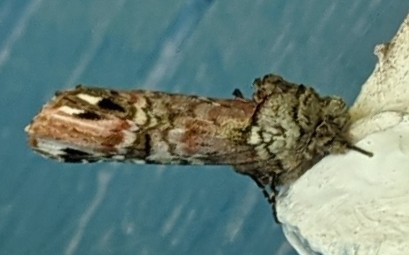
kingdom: Animalia
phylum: Arthropoda
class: Insecta
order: Lepidoptera
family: Notodontidae
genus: Schizura
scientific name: Schizura
